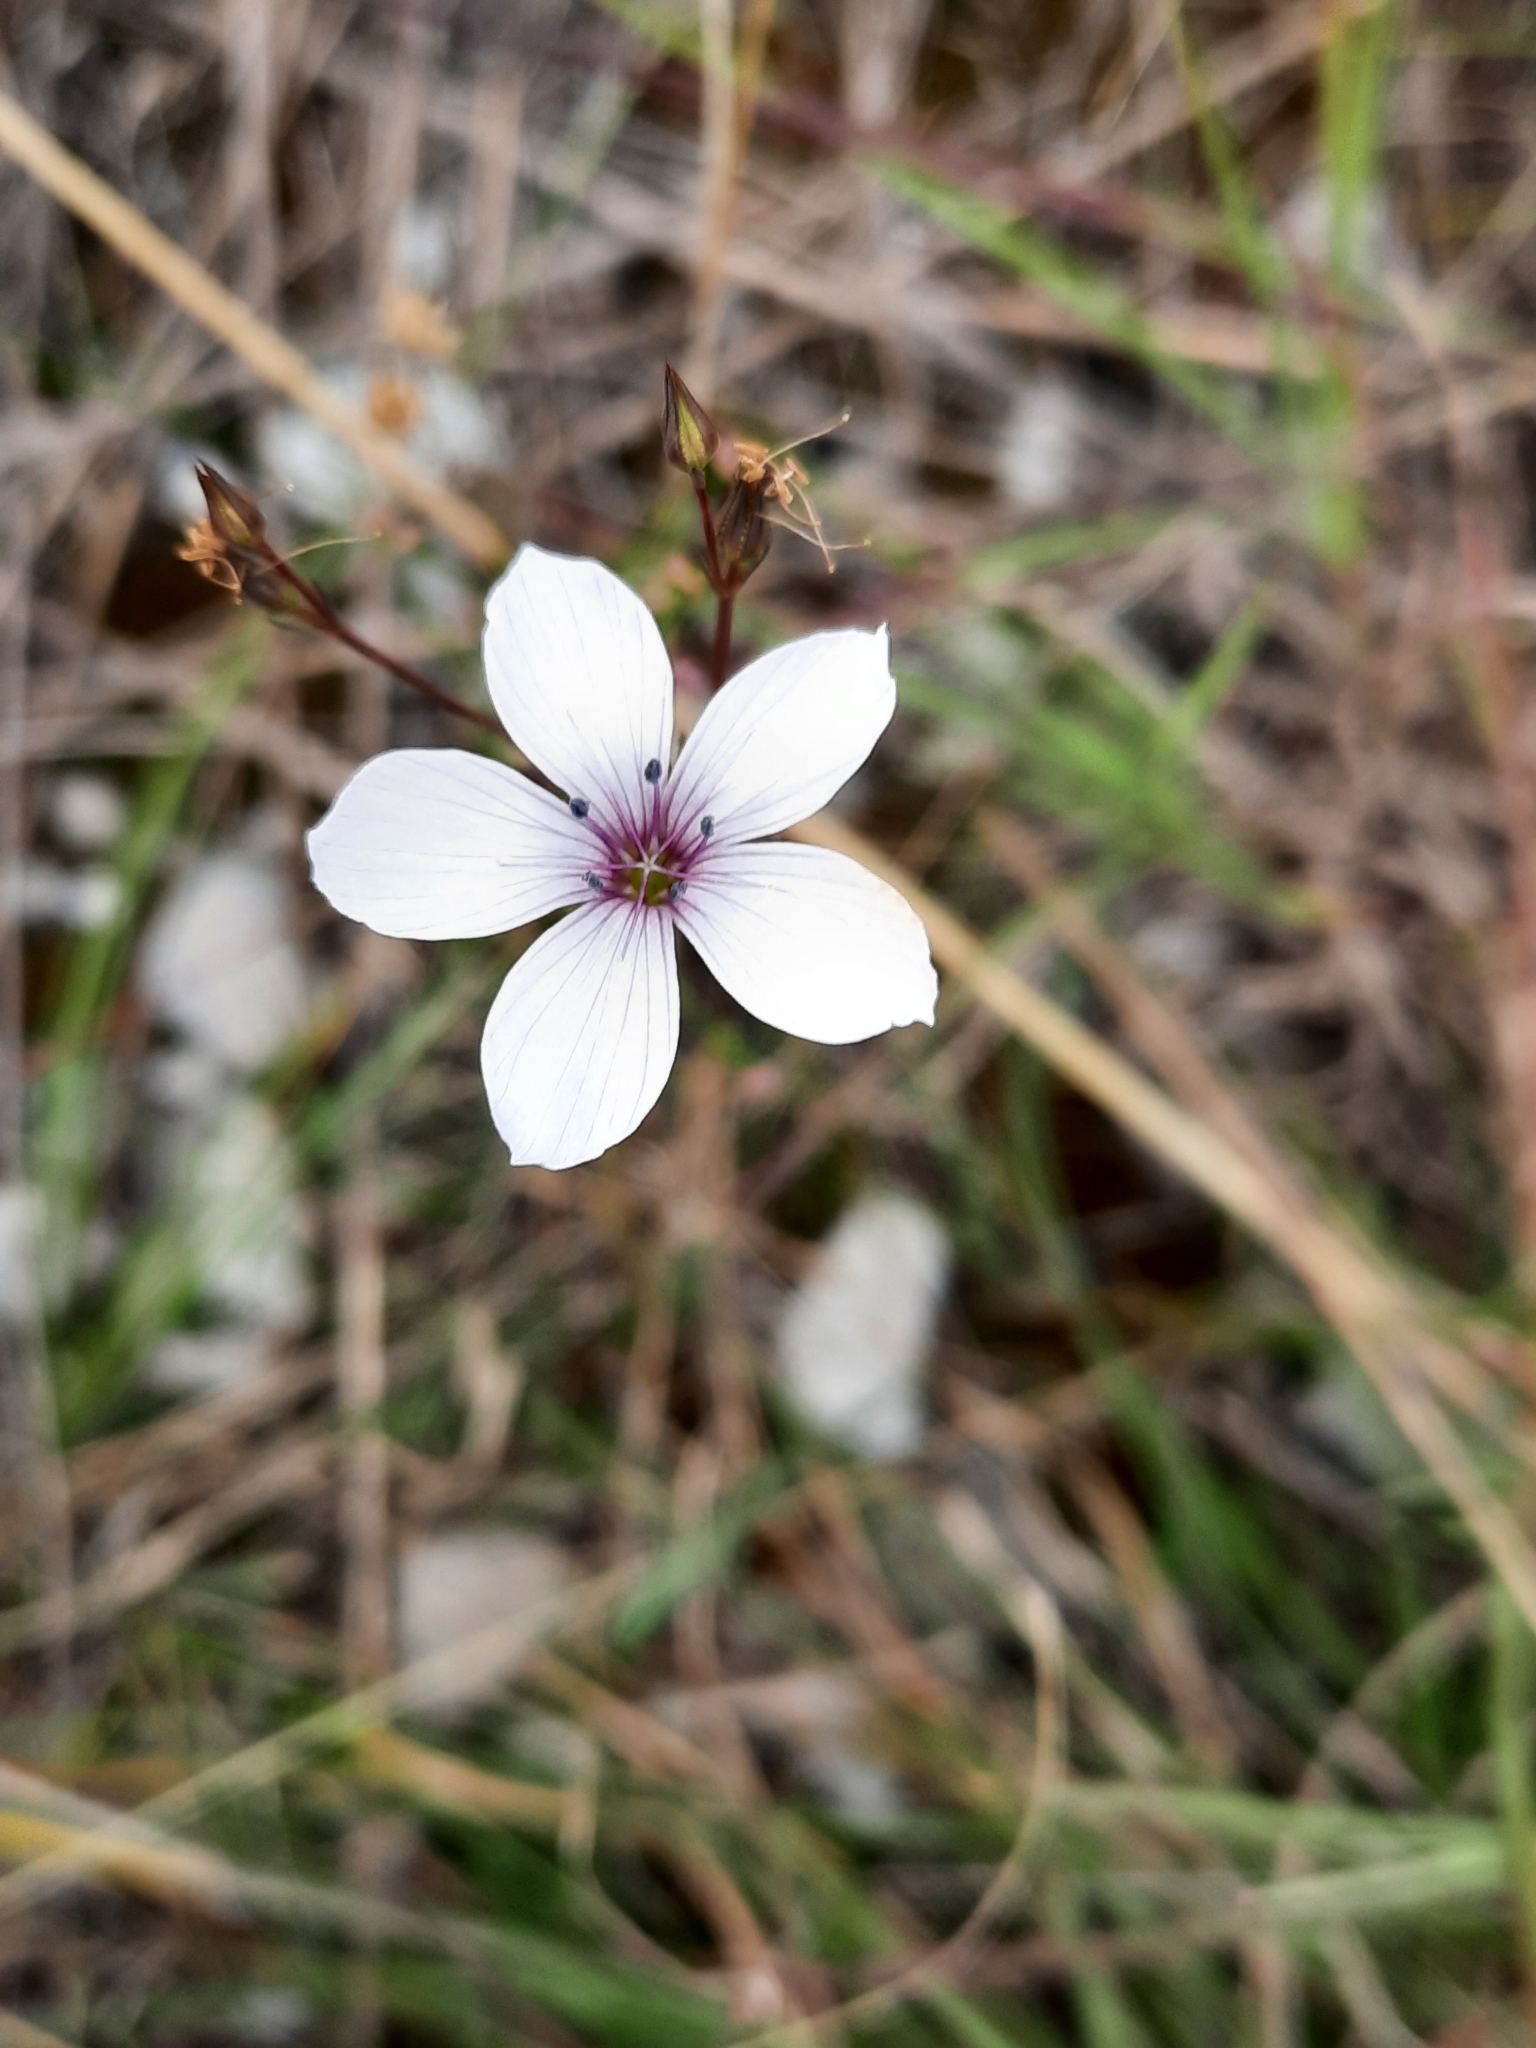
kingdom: Plantae
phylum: Tracheophyta
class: Magnoliopsida
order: Malpighiales
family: Linaceae
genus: Linum
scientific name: Linum tenuifolium
